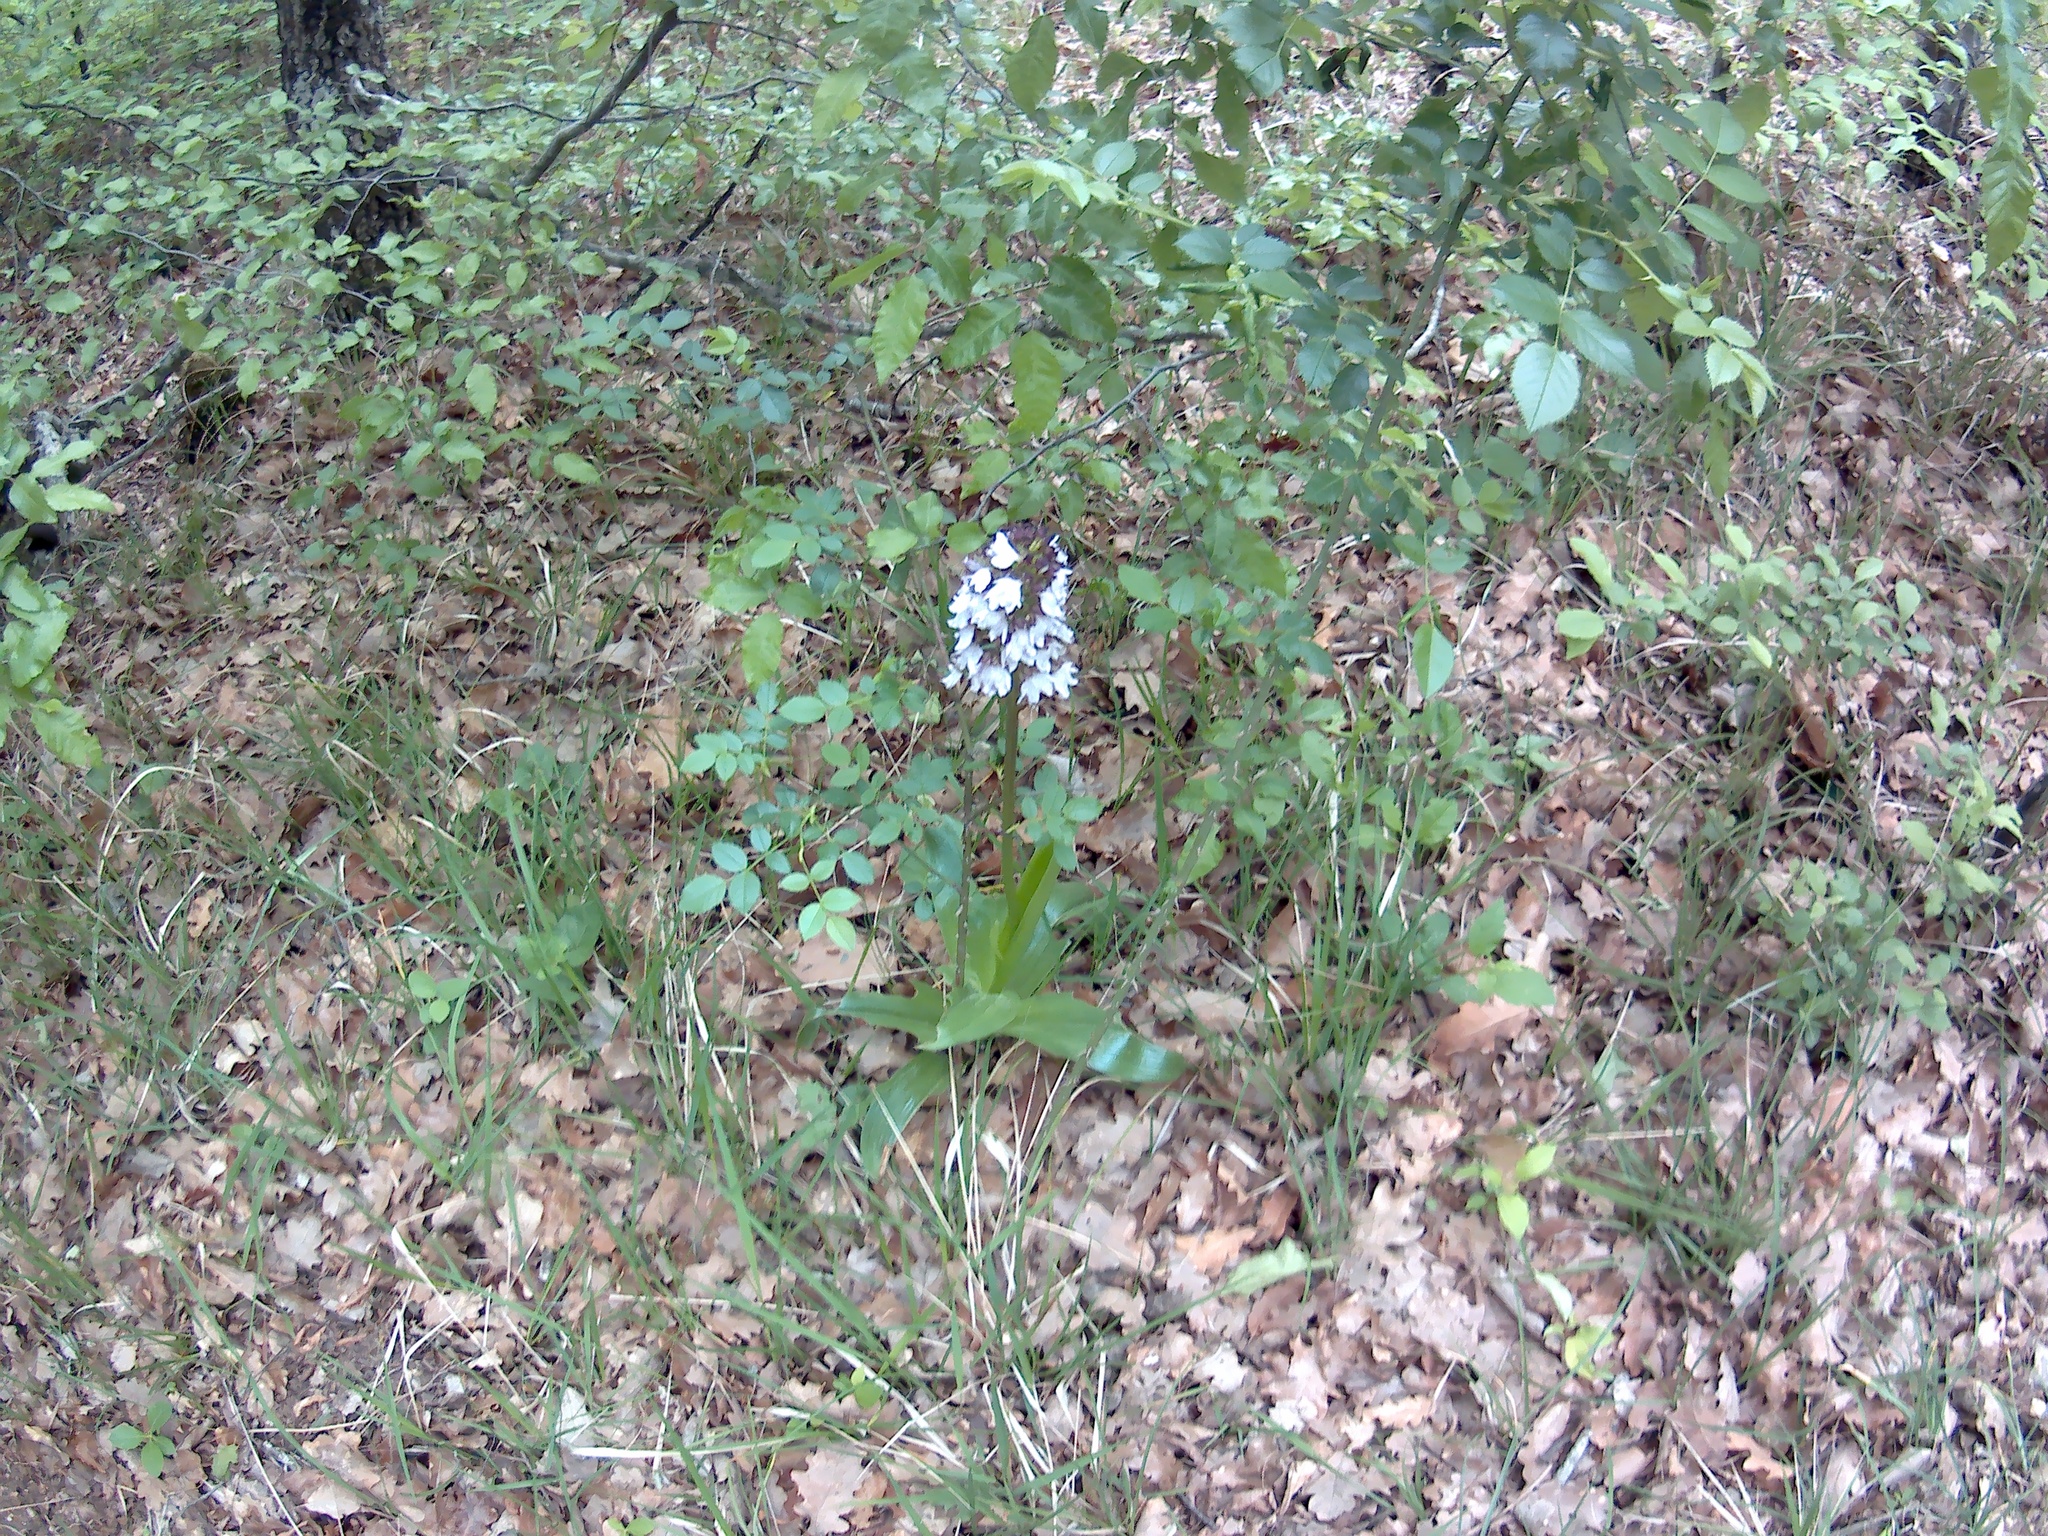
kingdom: Plantae
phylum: Tracheophyta
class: Liliopsida
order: Asparagales
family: Orchidaceae
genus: Orchis
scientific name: Orchis purpurea
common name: Lady orchid
